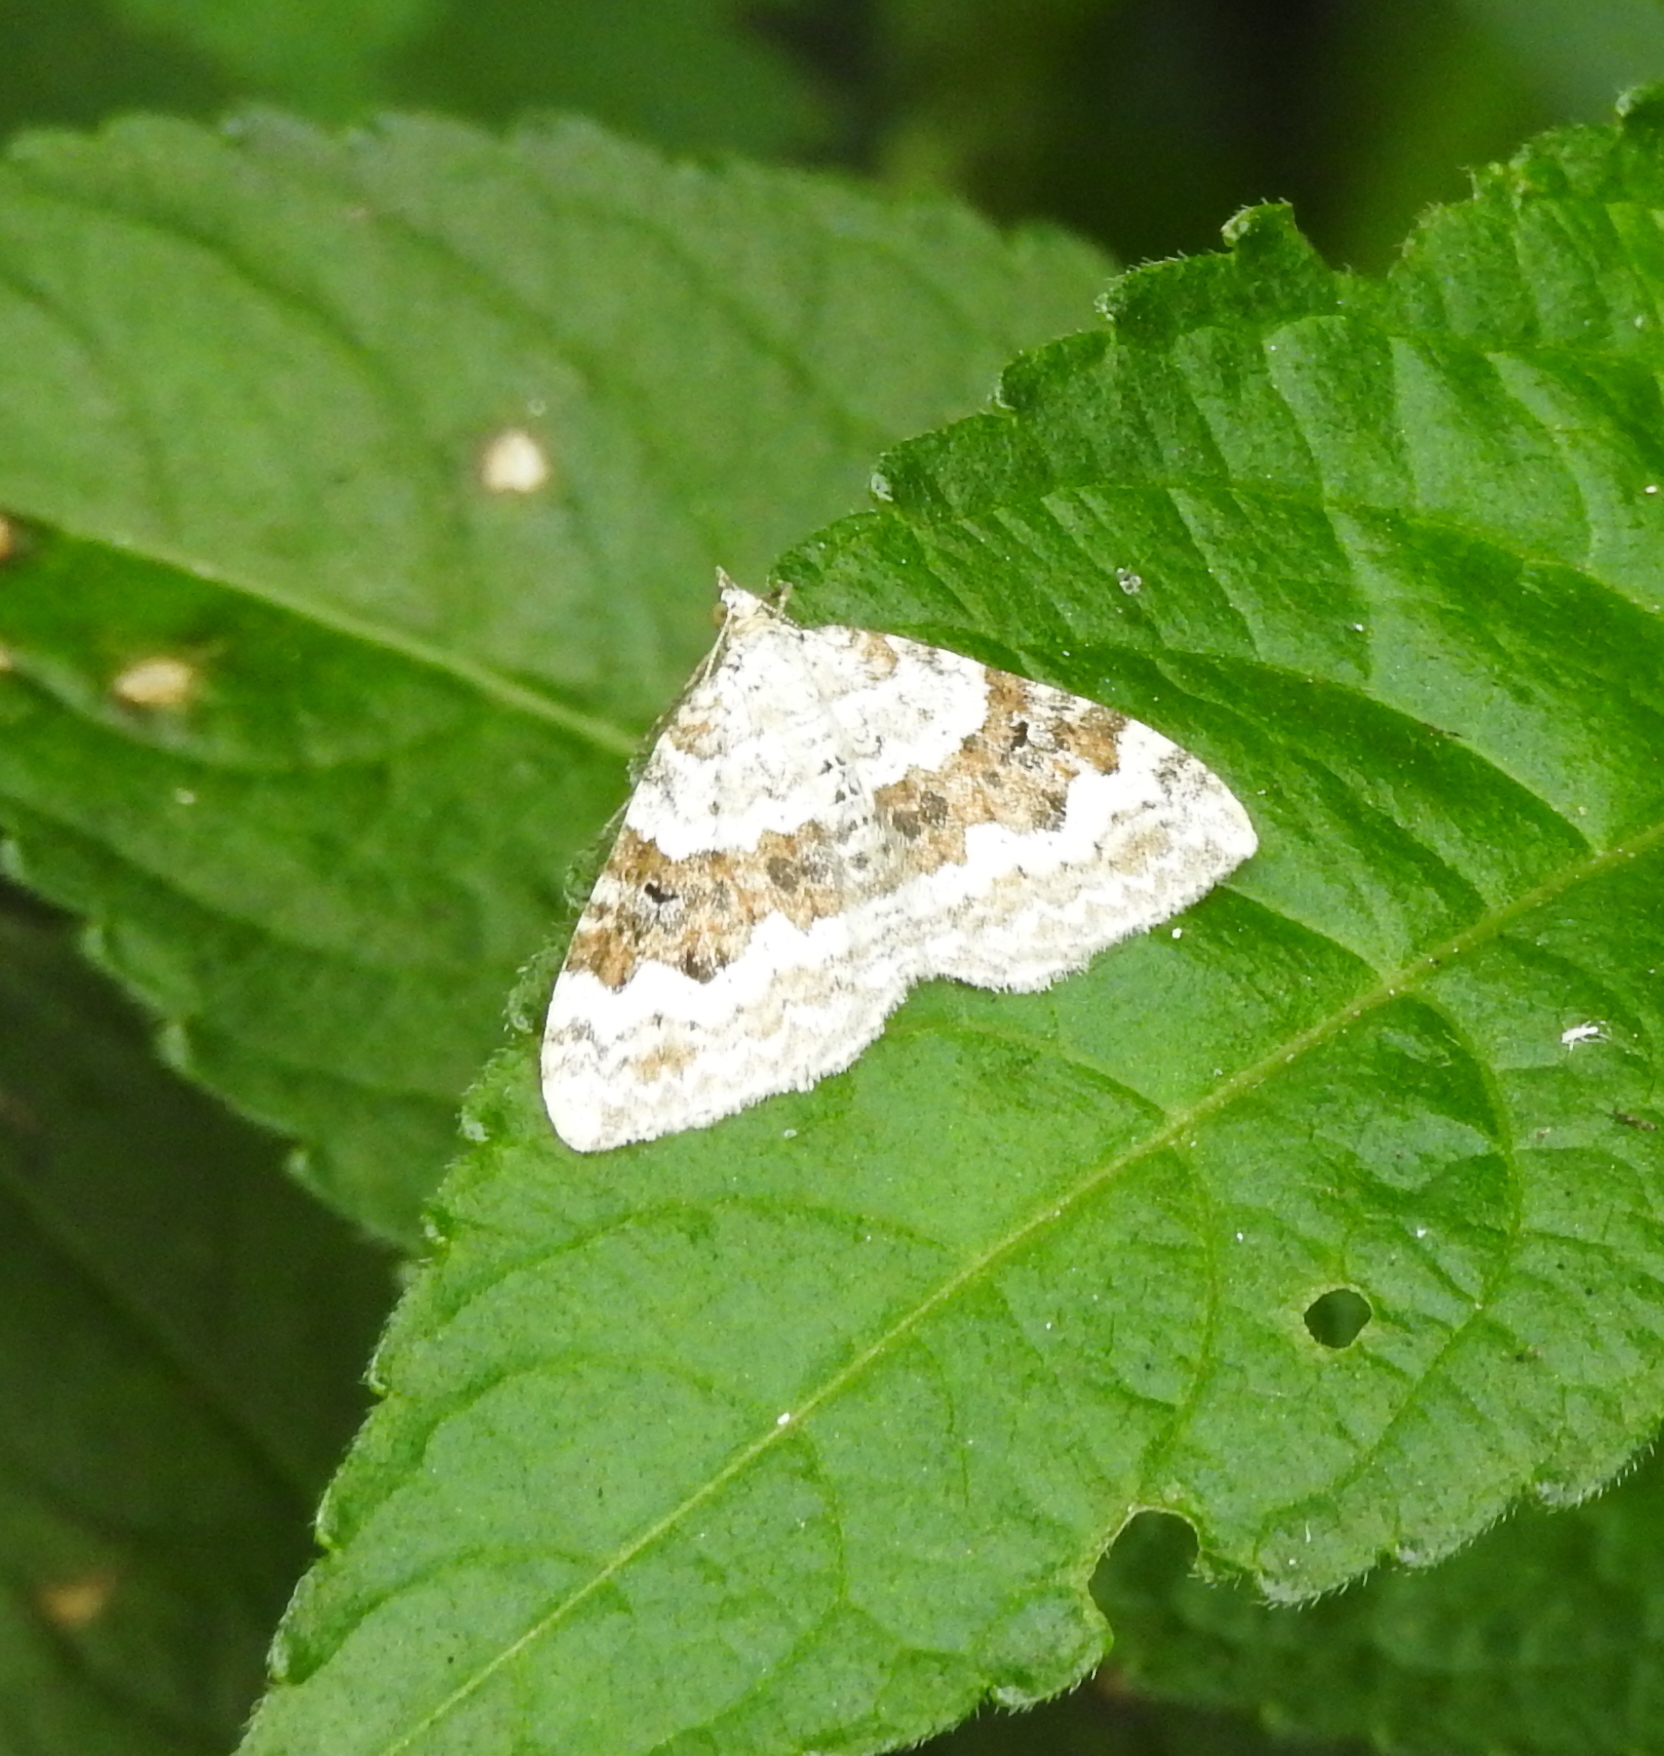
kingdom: Animalia
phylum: Arthropoda
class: Insecta
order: Lepidoptera
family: Geometridae
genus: Xanthorhoe
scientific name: Xanthorhoe montanata
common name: Silver-ground carpet
